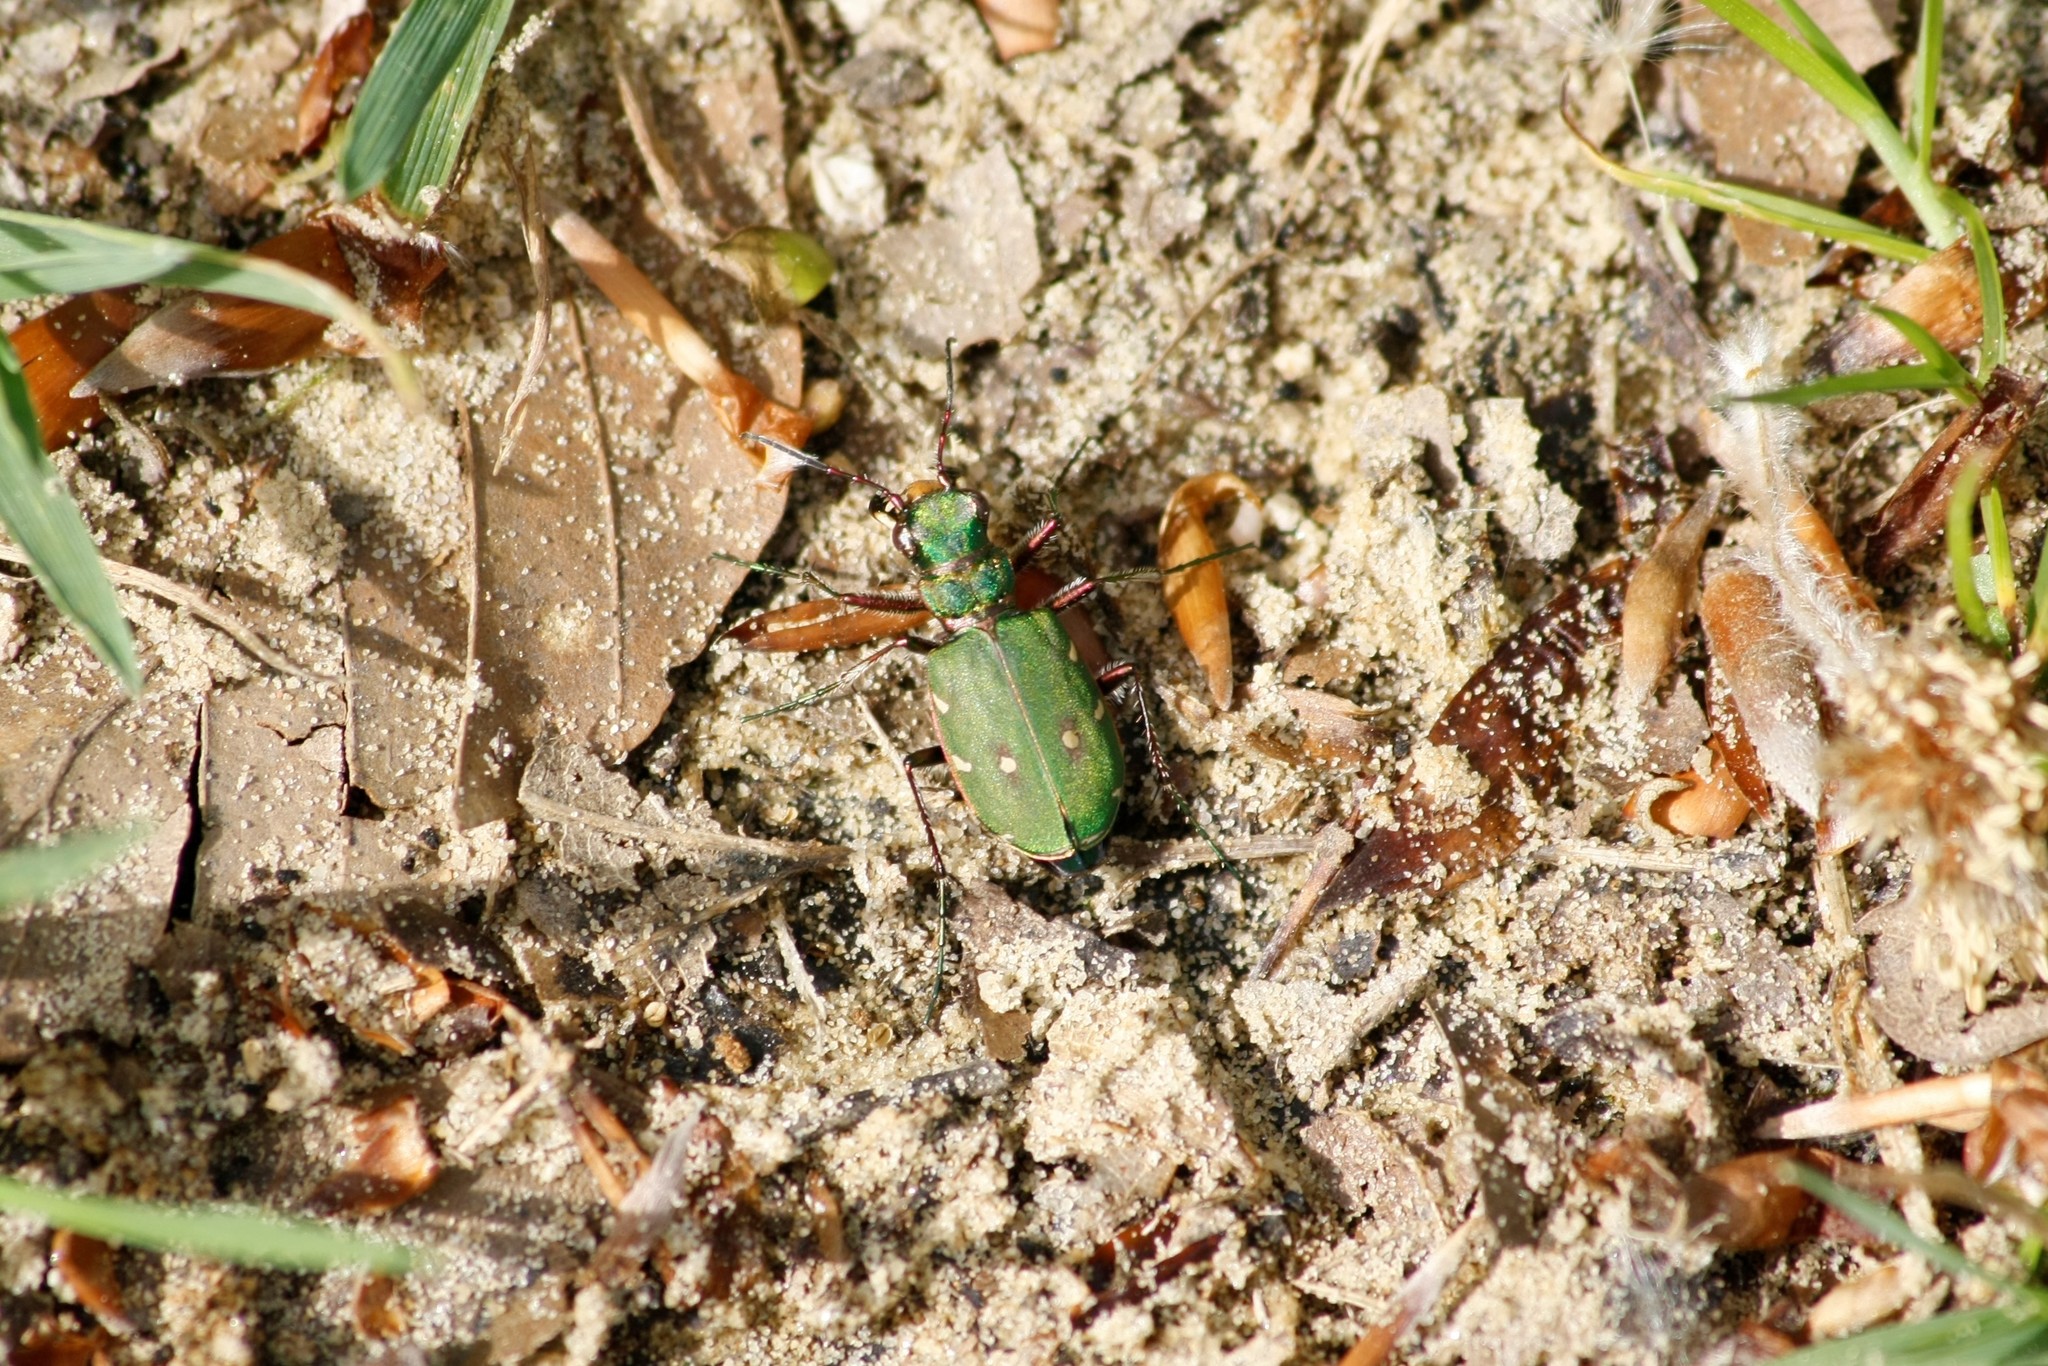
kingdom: Animalia
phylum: Arthropoda
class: Insecta
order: Coleoptera
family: Carabidae
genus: Cicindela
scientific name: Cicindela campestris
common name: Common tiger beetle
